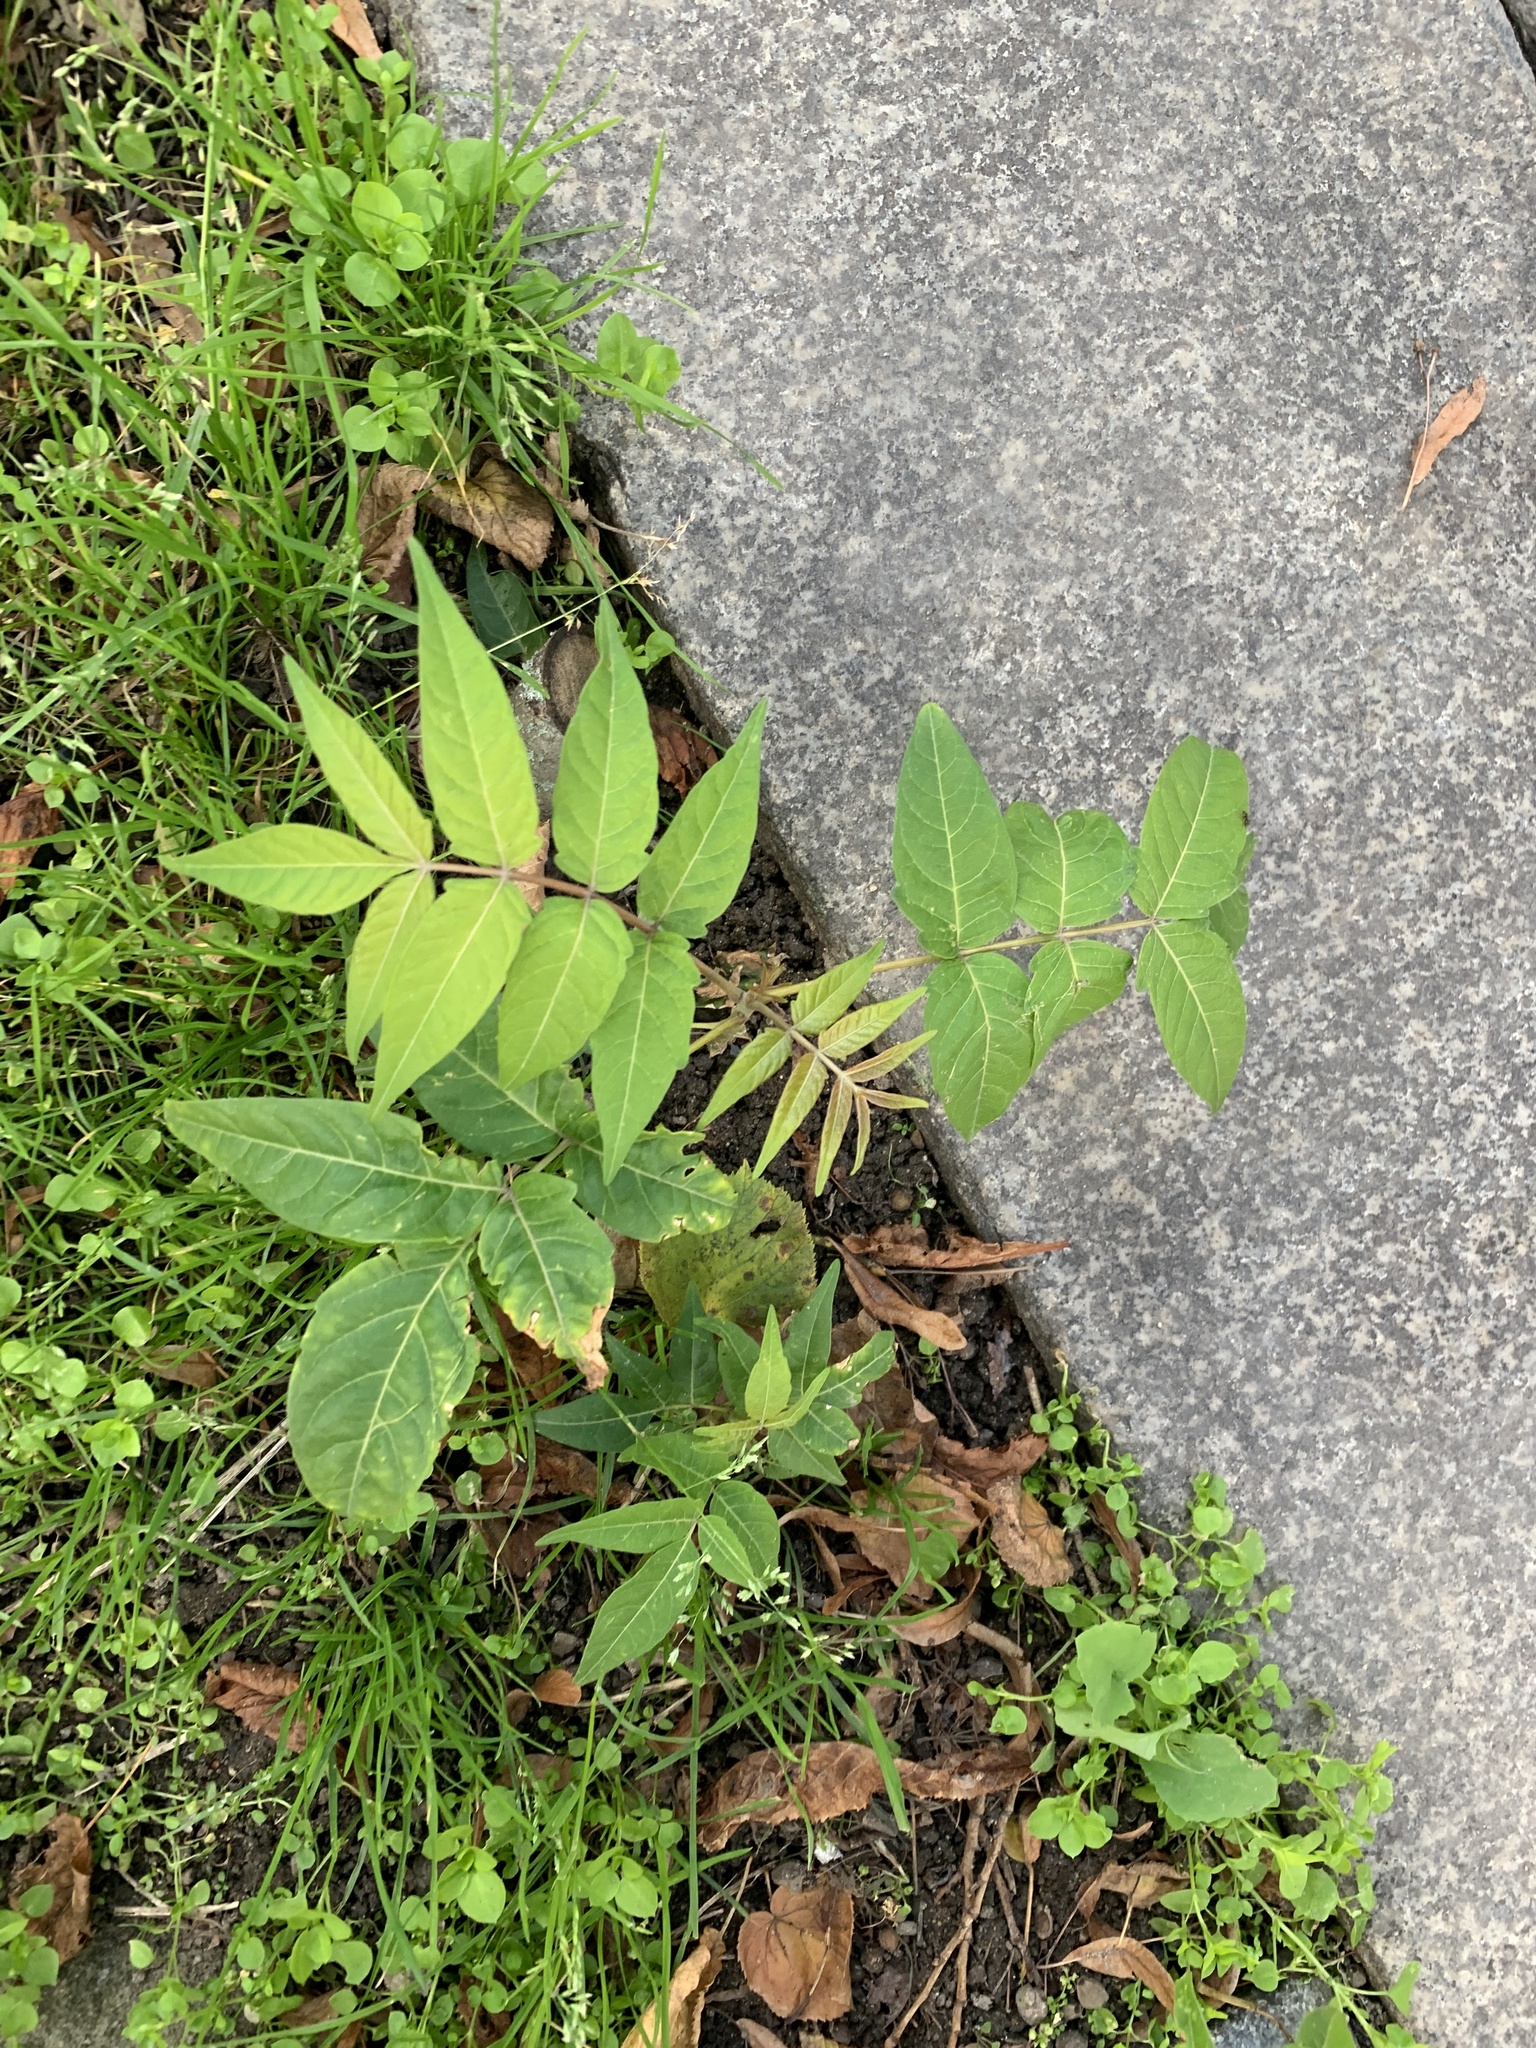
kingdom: Plantae
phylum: Tracheophyta
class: Magnoliopsida
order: Sapindales
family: Simaroubaceae
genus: Ailanthus
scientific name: Ailanthus altissima
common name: Tree-of-heaven
